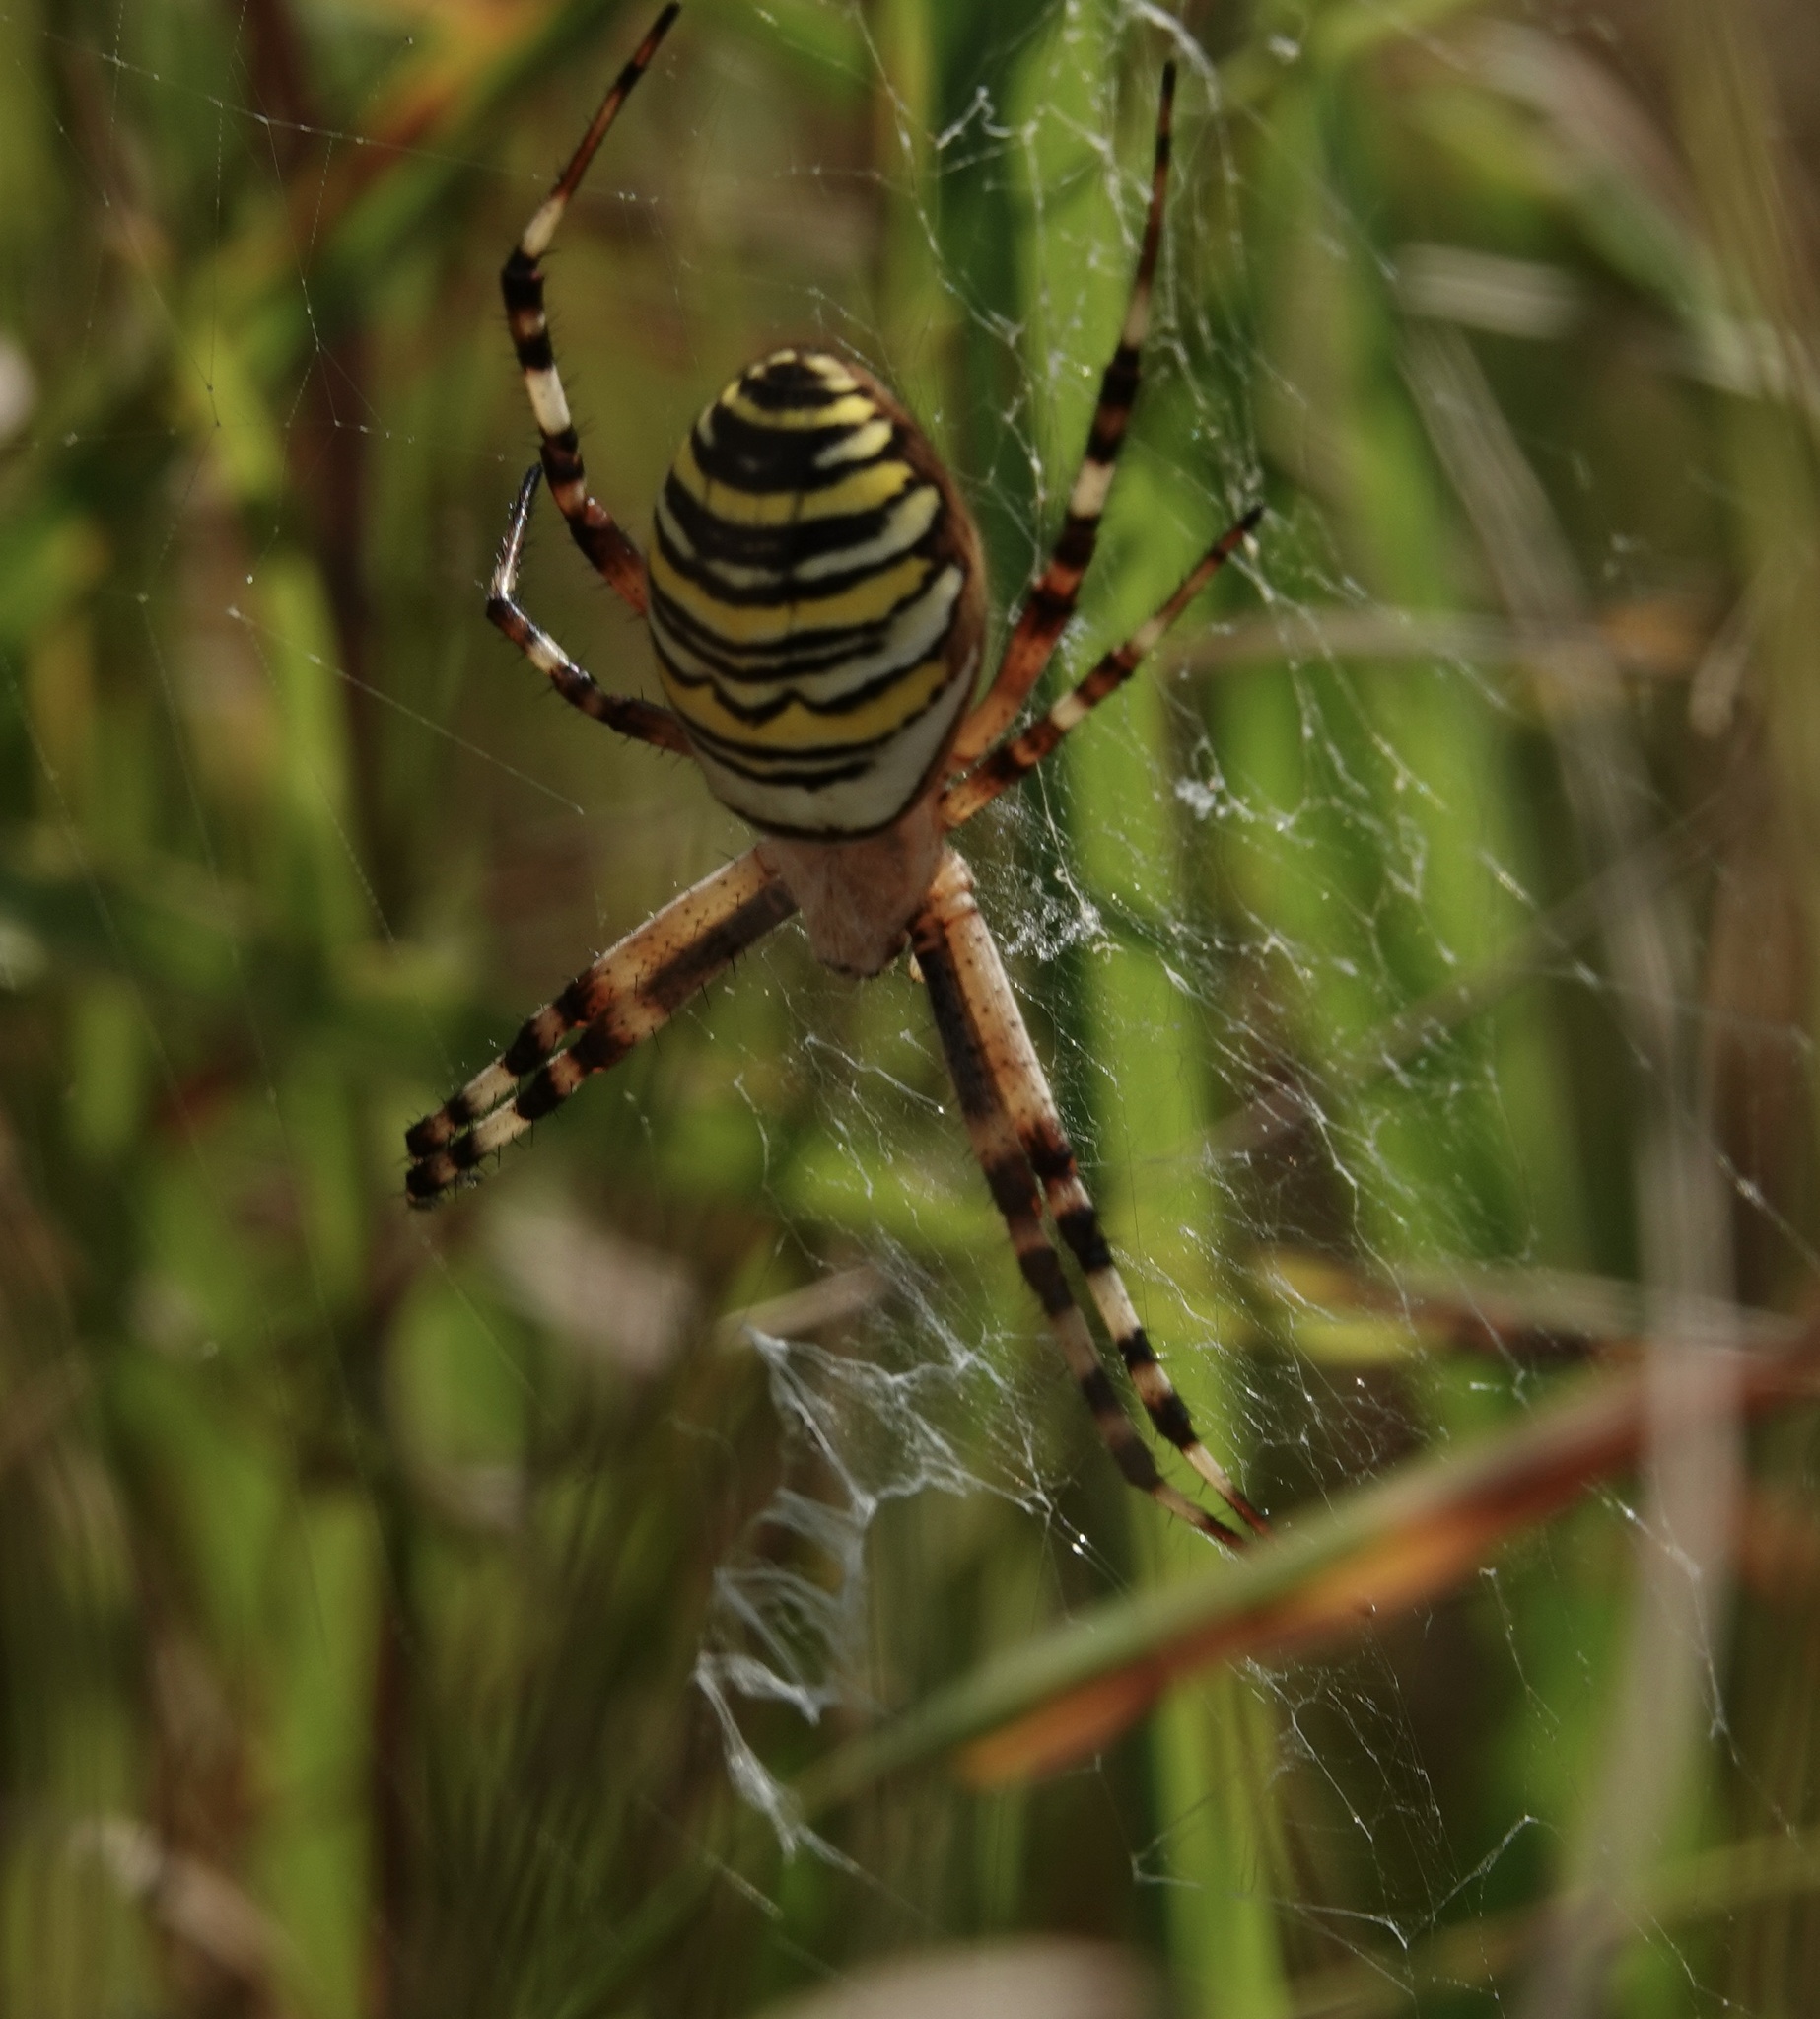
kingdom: Animalia
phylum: Arthropoda
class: Arachnida
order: Araneae
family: Araneidae
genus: Argiope
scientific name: Argiope bruennichi
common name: Wasp spider
